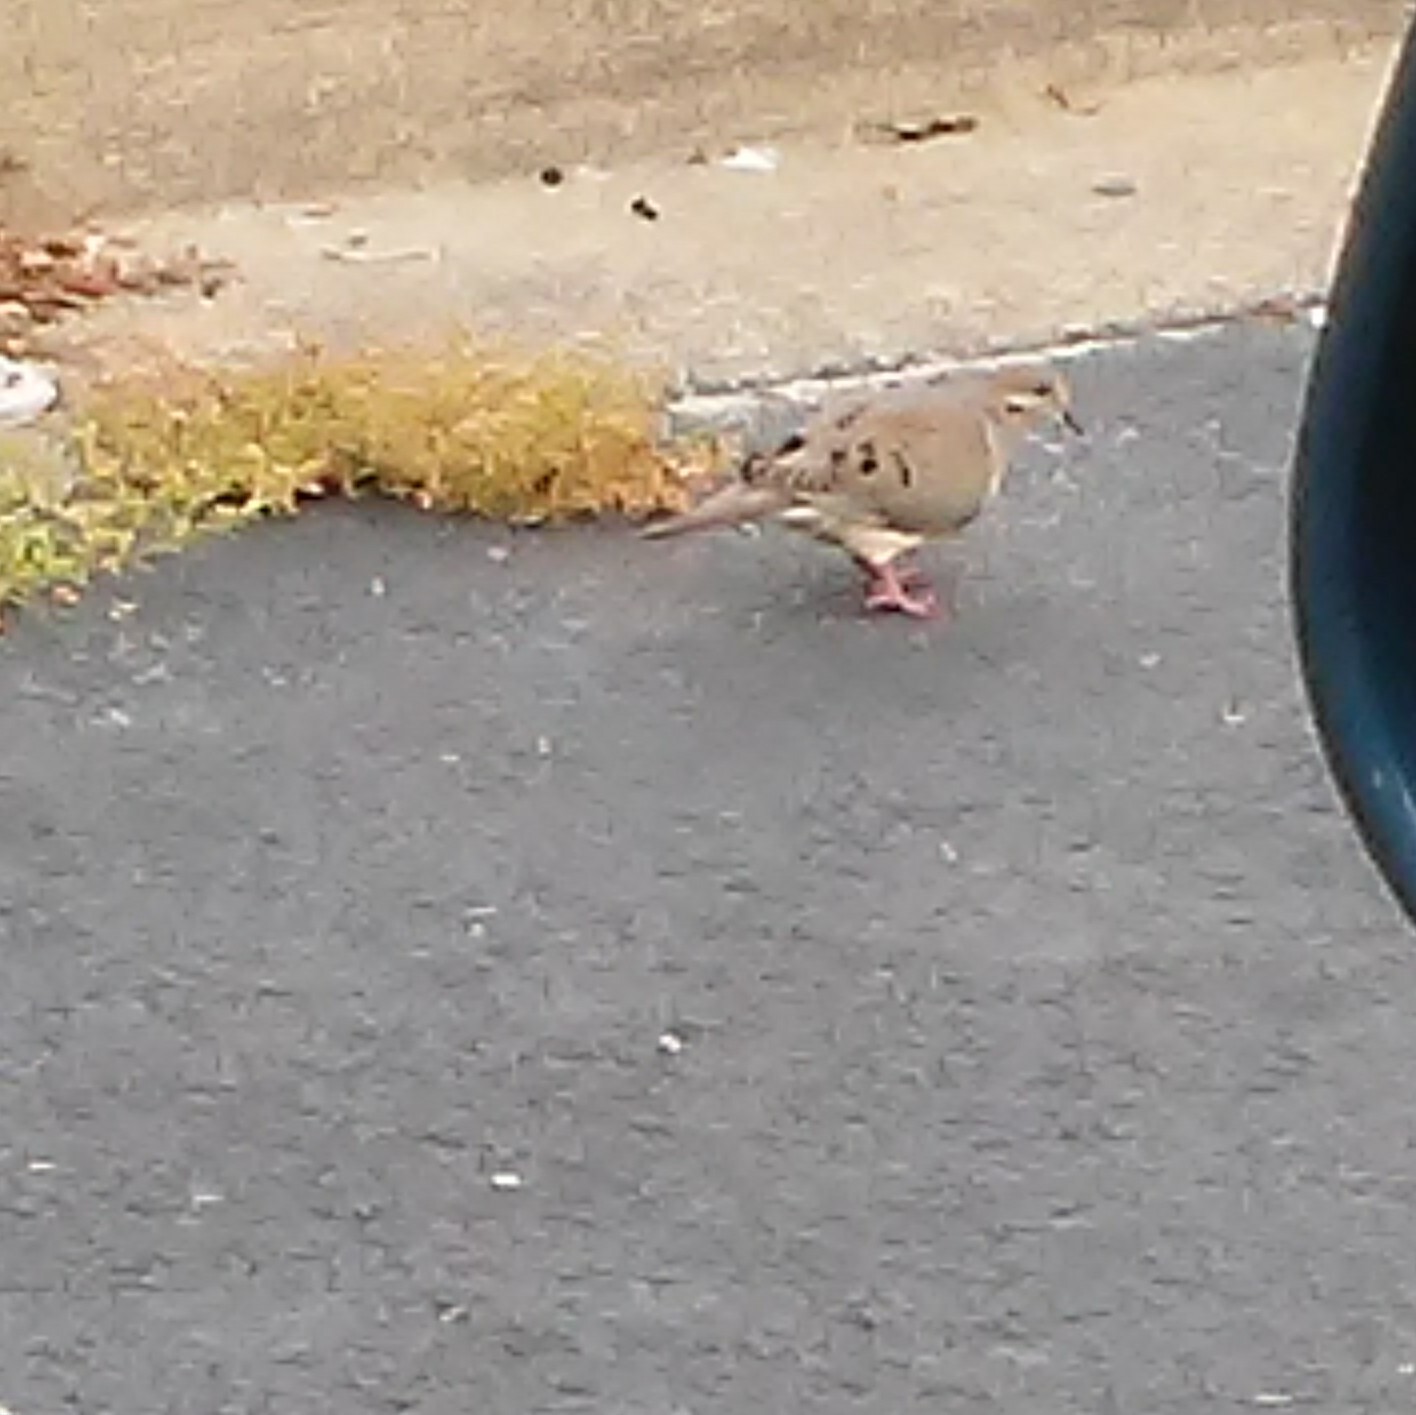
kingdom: Animalia
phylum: Chordata
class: Aves
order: Columbiformes
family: Columbidae
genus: Zenaida
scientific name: Zenaida macroura
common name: Mourning dove
